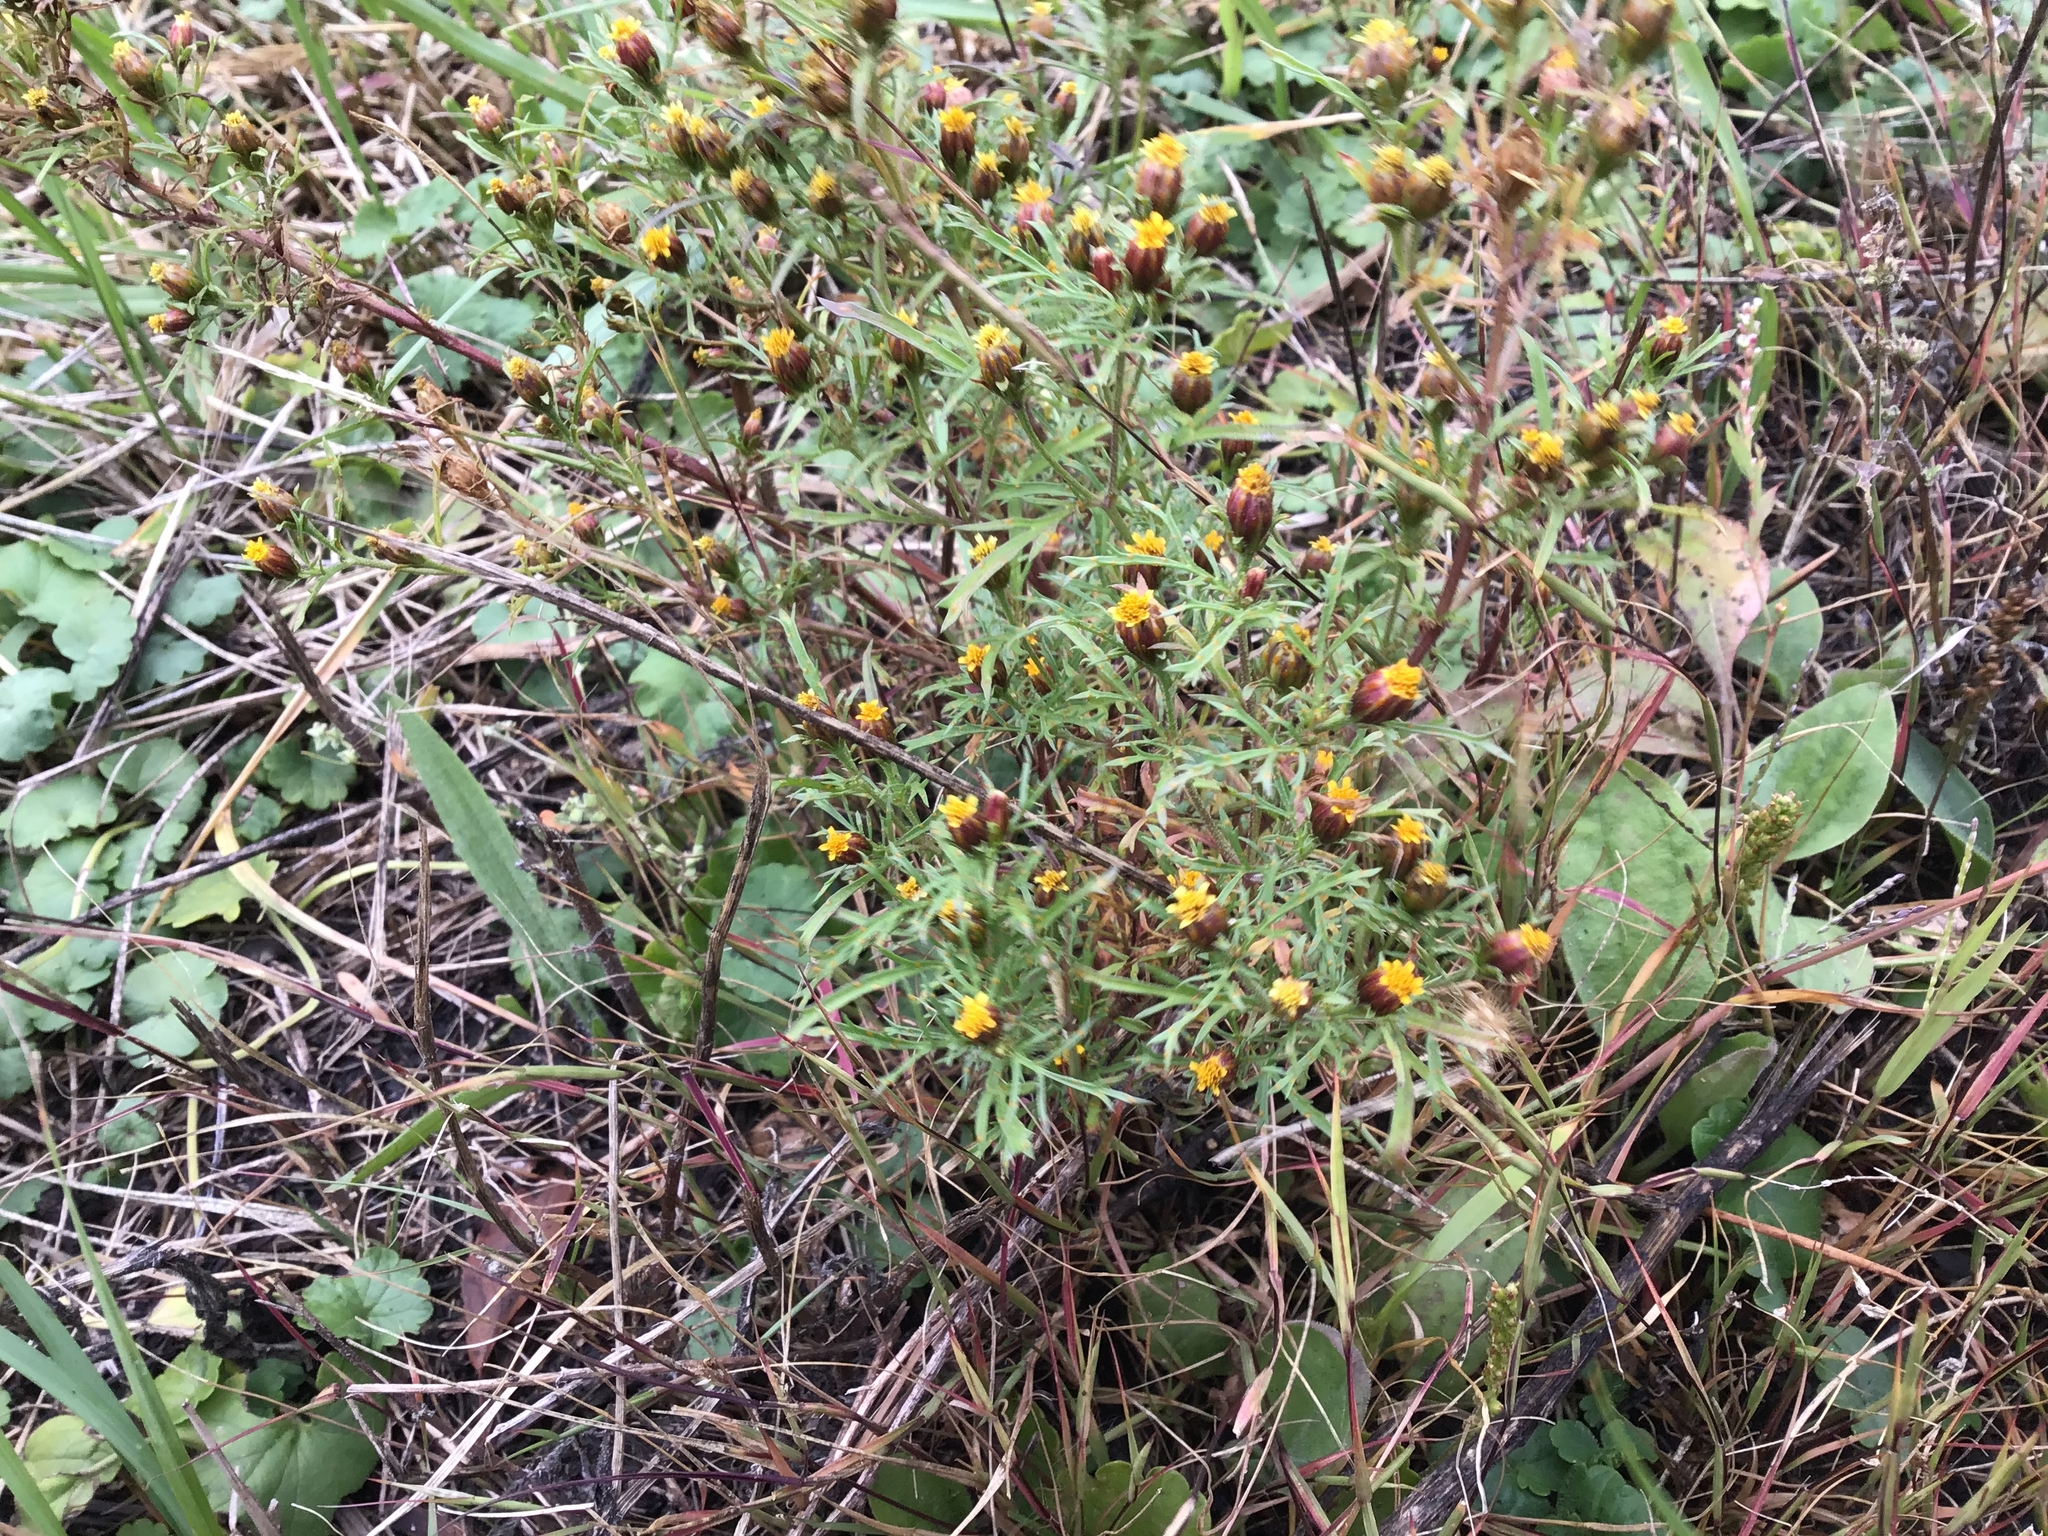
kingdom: Plantae
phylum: Tracheophyta
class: Magnoliopsida
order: Asterales
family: Asteraceae
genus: Dyssodia
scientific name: Dyssodia papposa
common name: Dogweed
